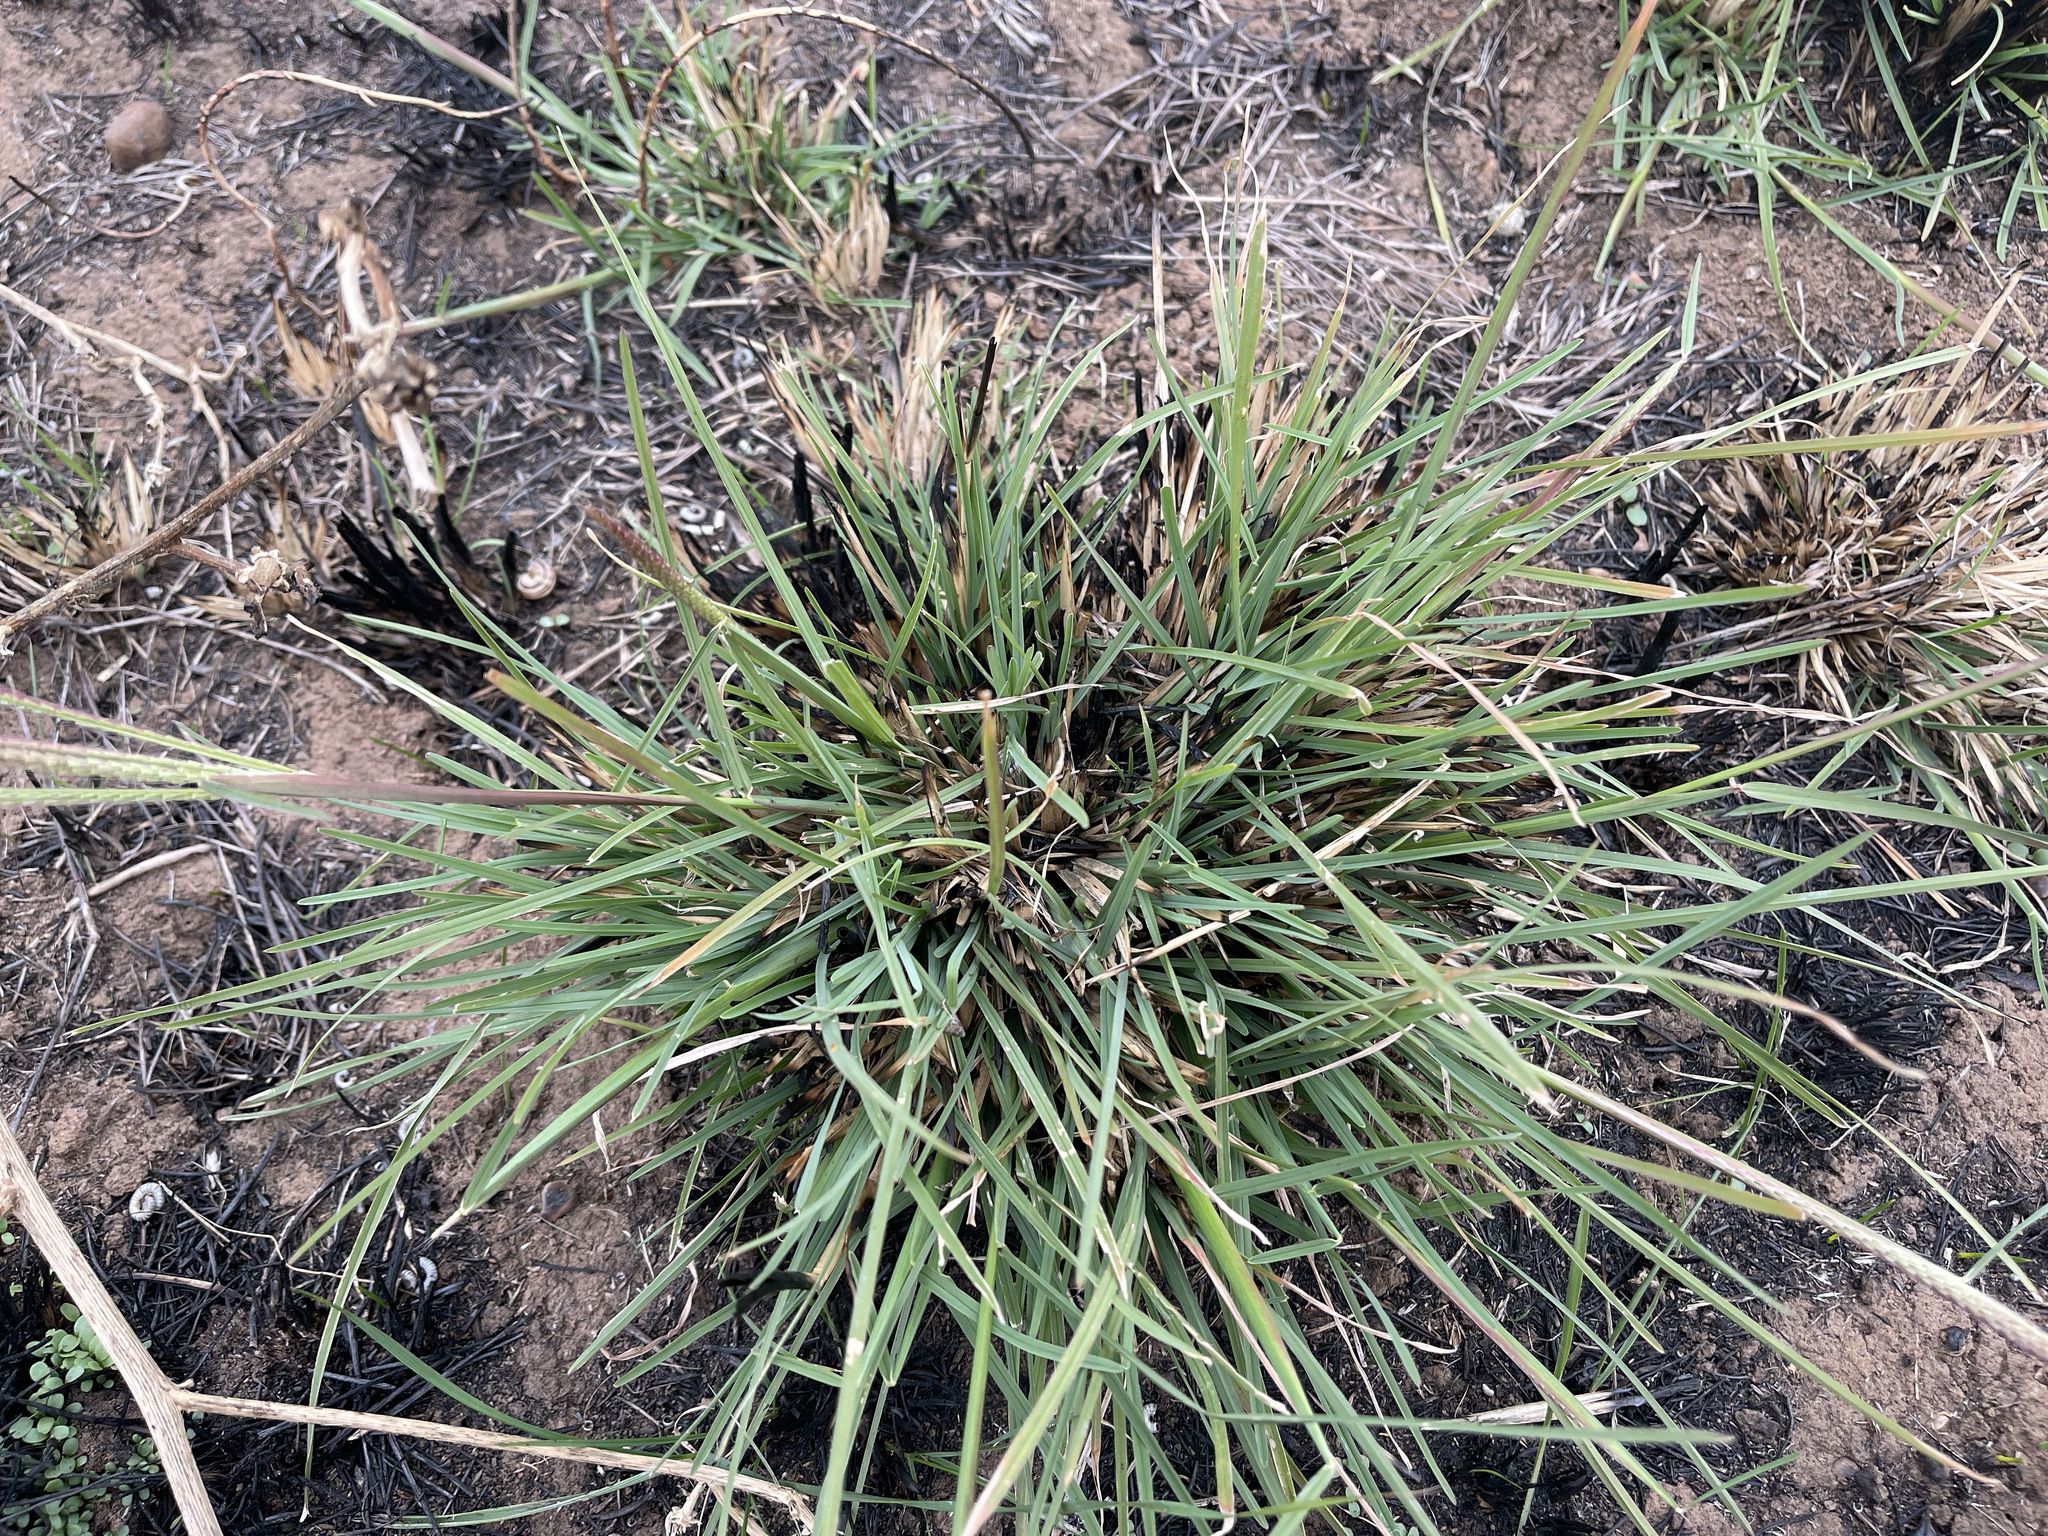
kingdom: Plantae
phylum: Tracheophyta
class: Liliopsida
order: Poales
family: Poaceae
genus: Chloris
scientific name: Chloris truncata
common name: Windmill-grass
